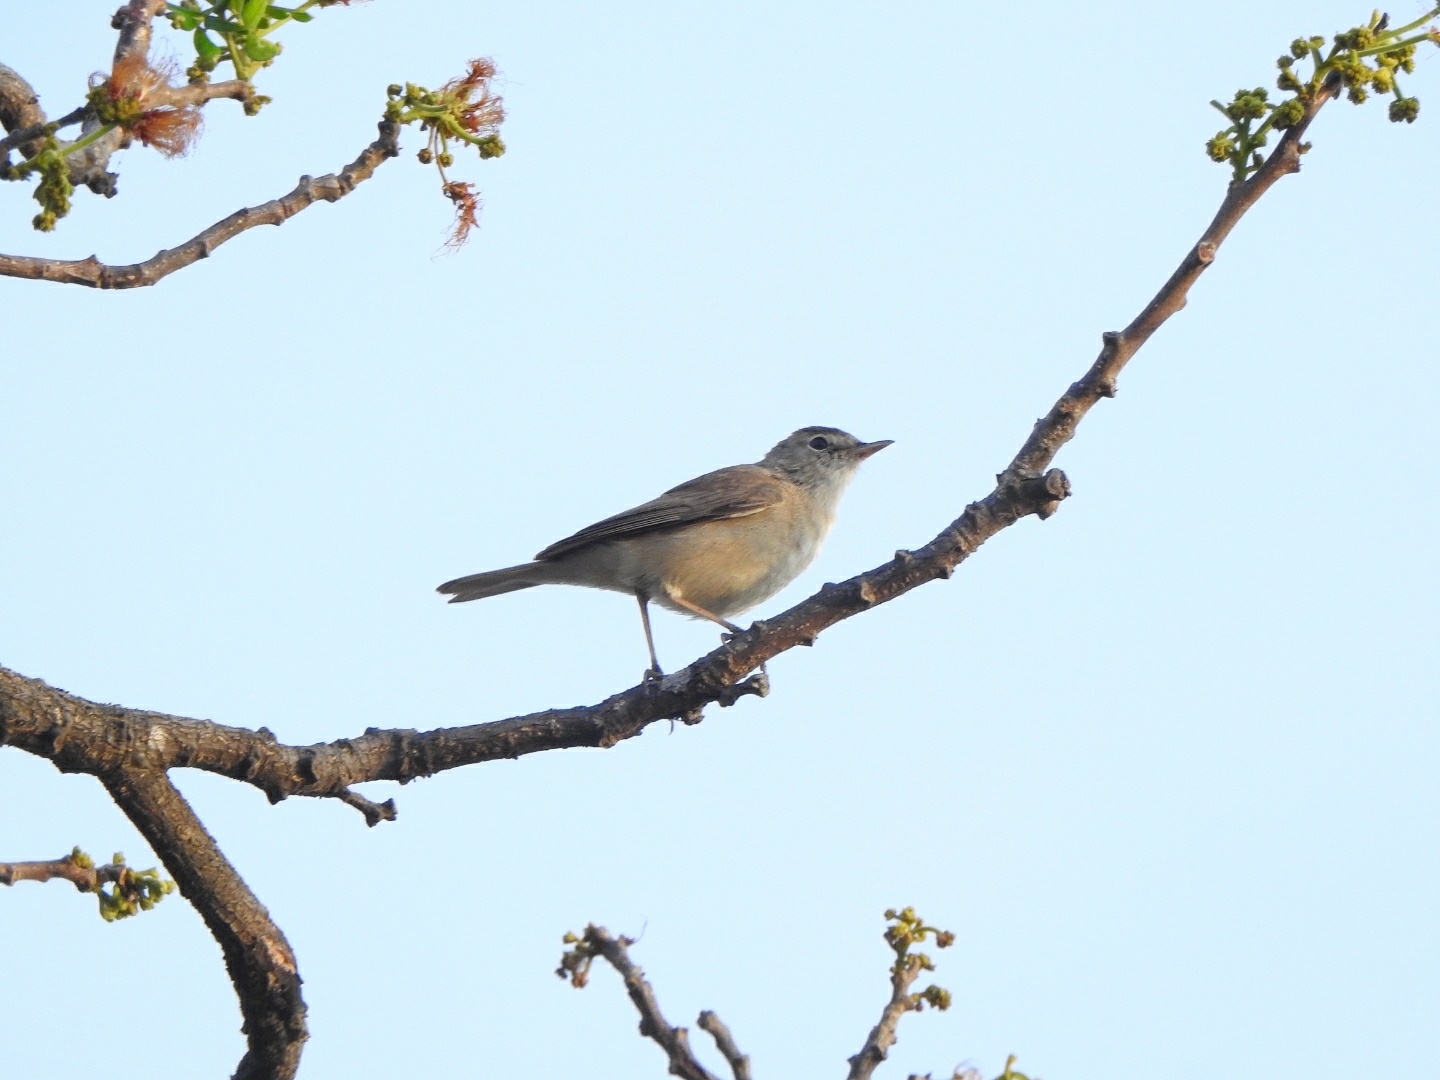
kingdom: Animalia
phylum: Chordata
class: Aves
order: Passeriformes
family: Acrocephalidae
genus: Iduna
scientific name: Iduna caligata
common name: Booted warbler
